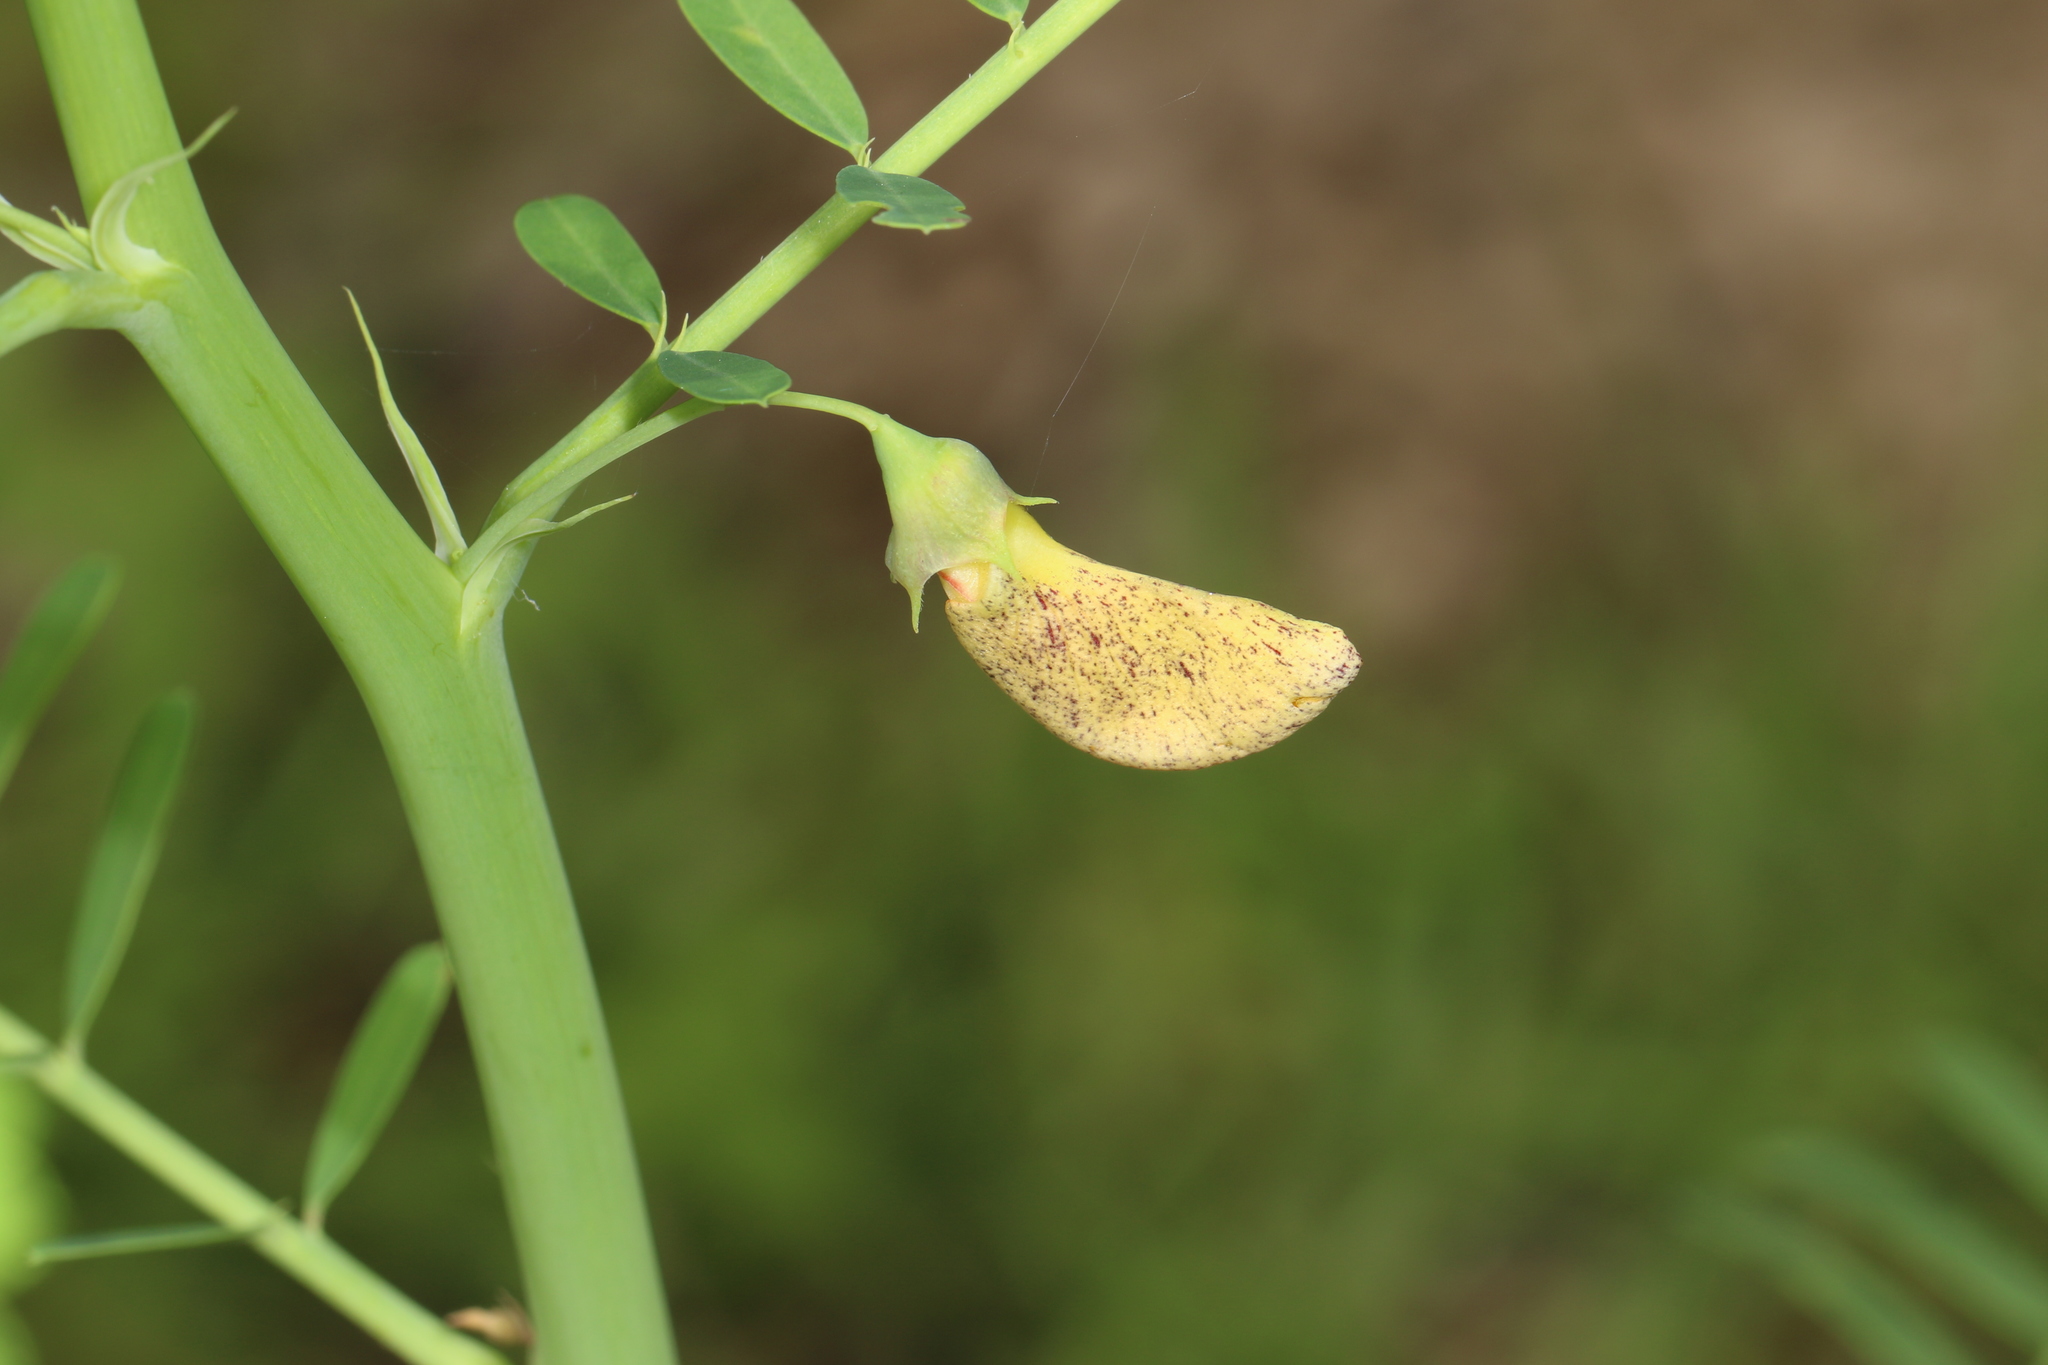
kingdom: Plantae
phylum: Tracheophyta
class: Magnoliopsida
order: Fabales
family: Fabaceae
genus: Sesbania
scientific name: Sesbania herbacea
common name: Bigpod sesbania
